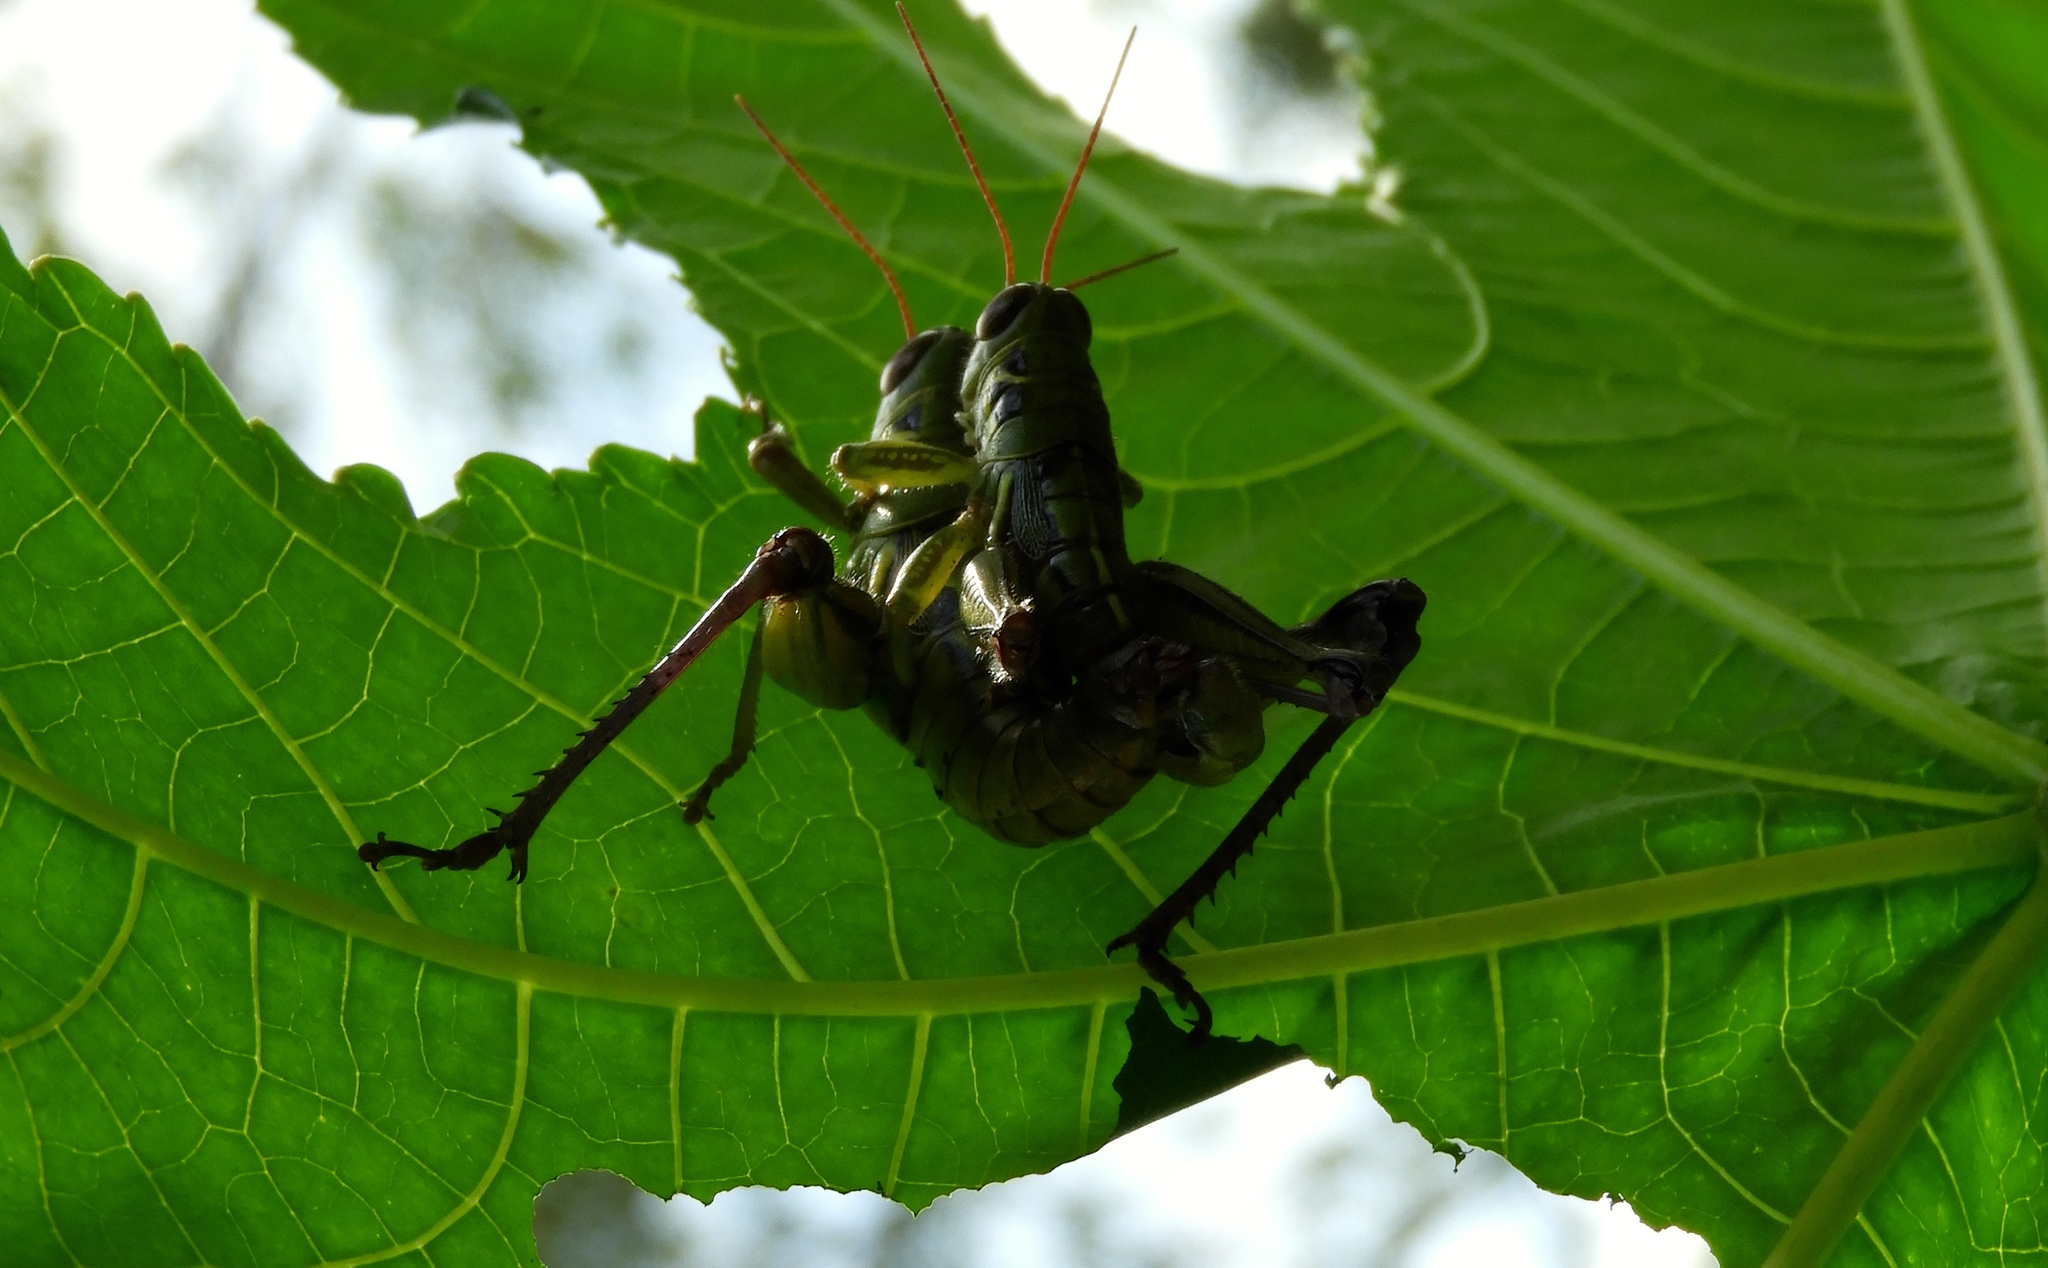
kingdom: Animalia
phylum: Arthropoda
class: Insecta
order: Orthoptera
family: Acrididae
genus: Barytettix
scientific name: Barytettix
